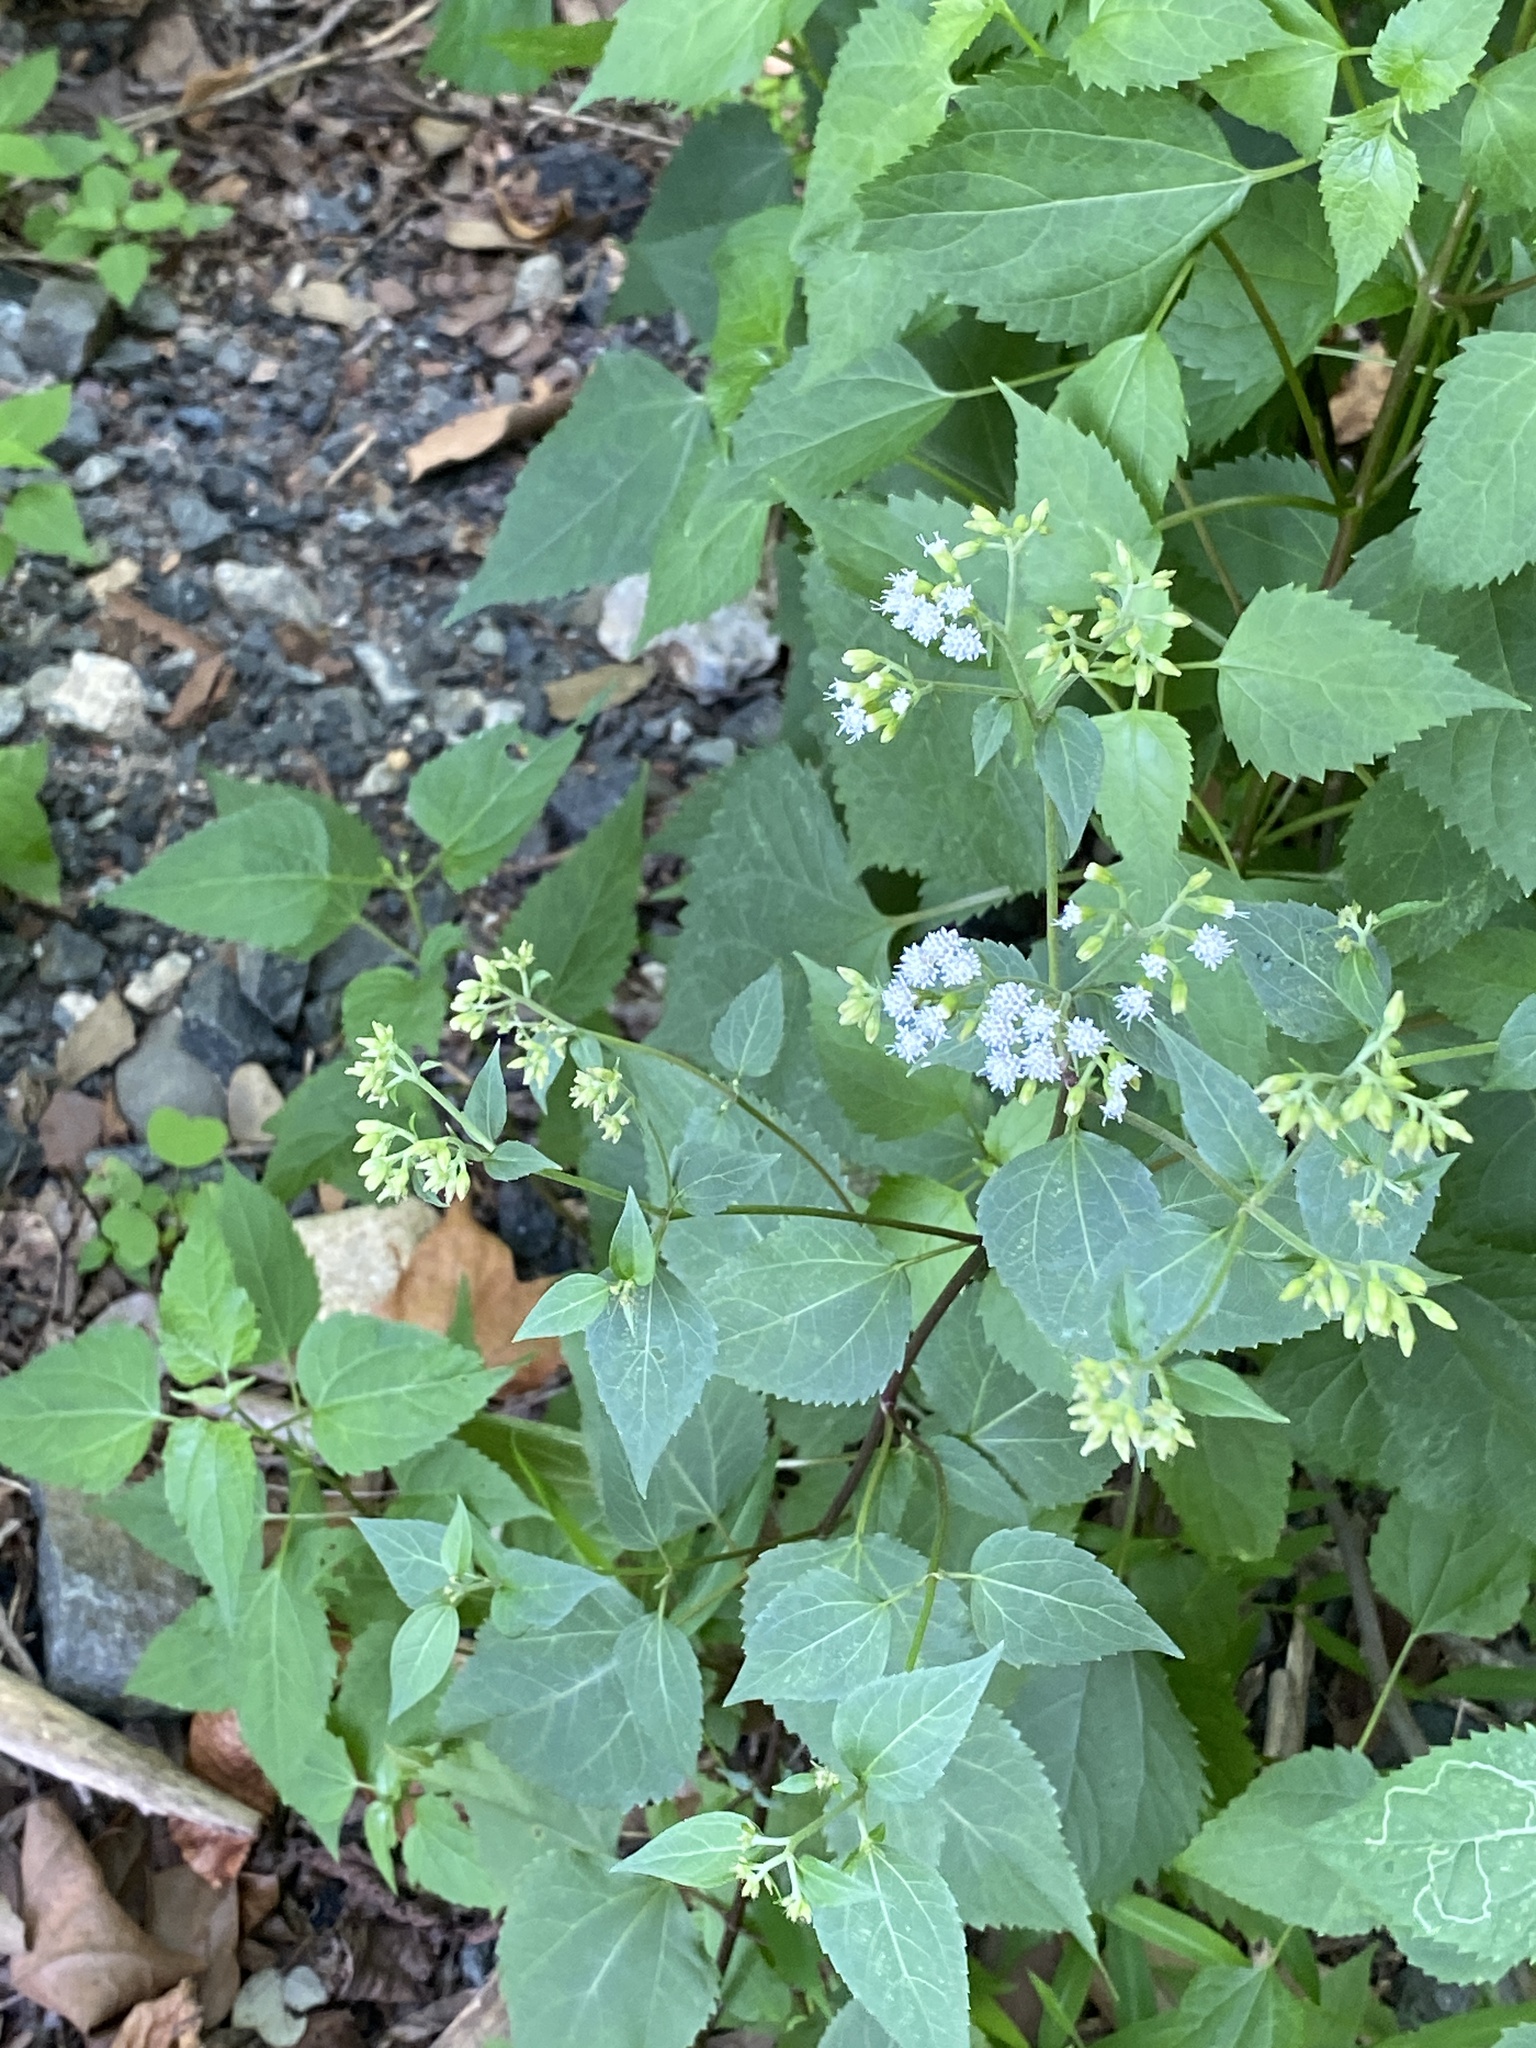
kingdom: Plantae
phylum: Tracheophyta
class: Magnoliopsida
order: Asterales
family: Asteraceae
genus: Ageratina
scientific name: Ageratina altissima
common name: White snakeroot
